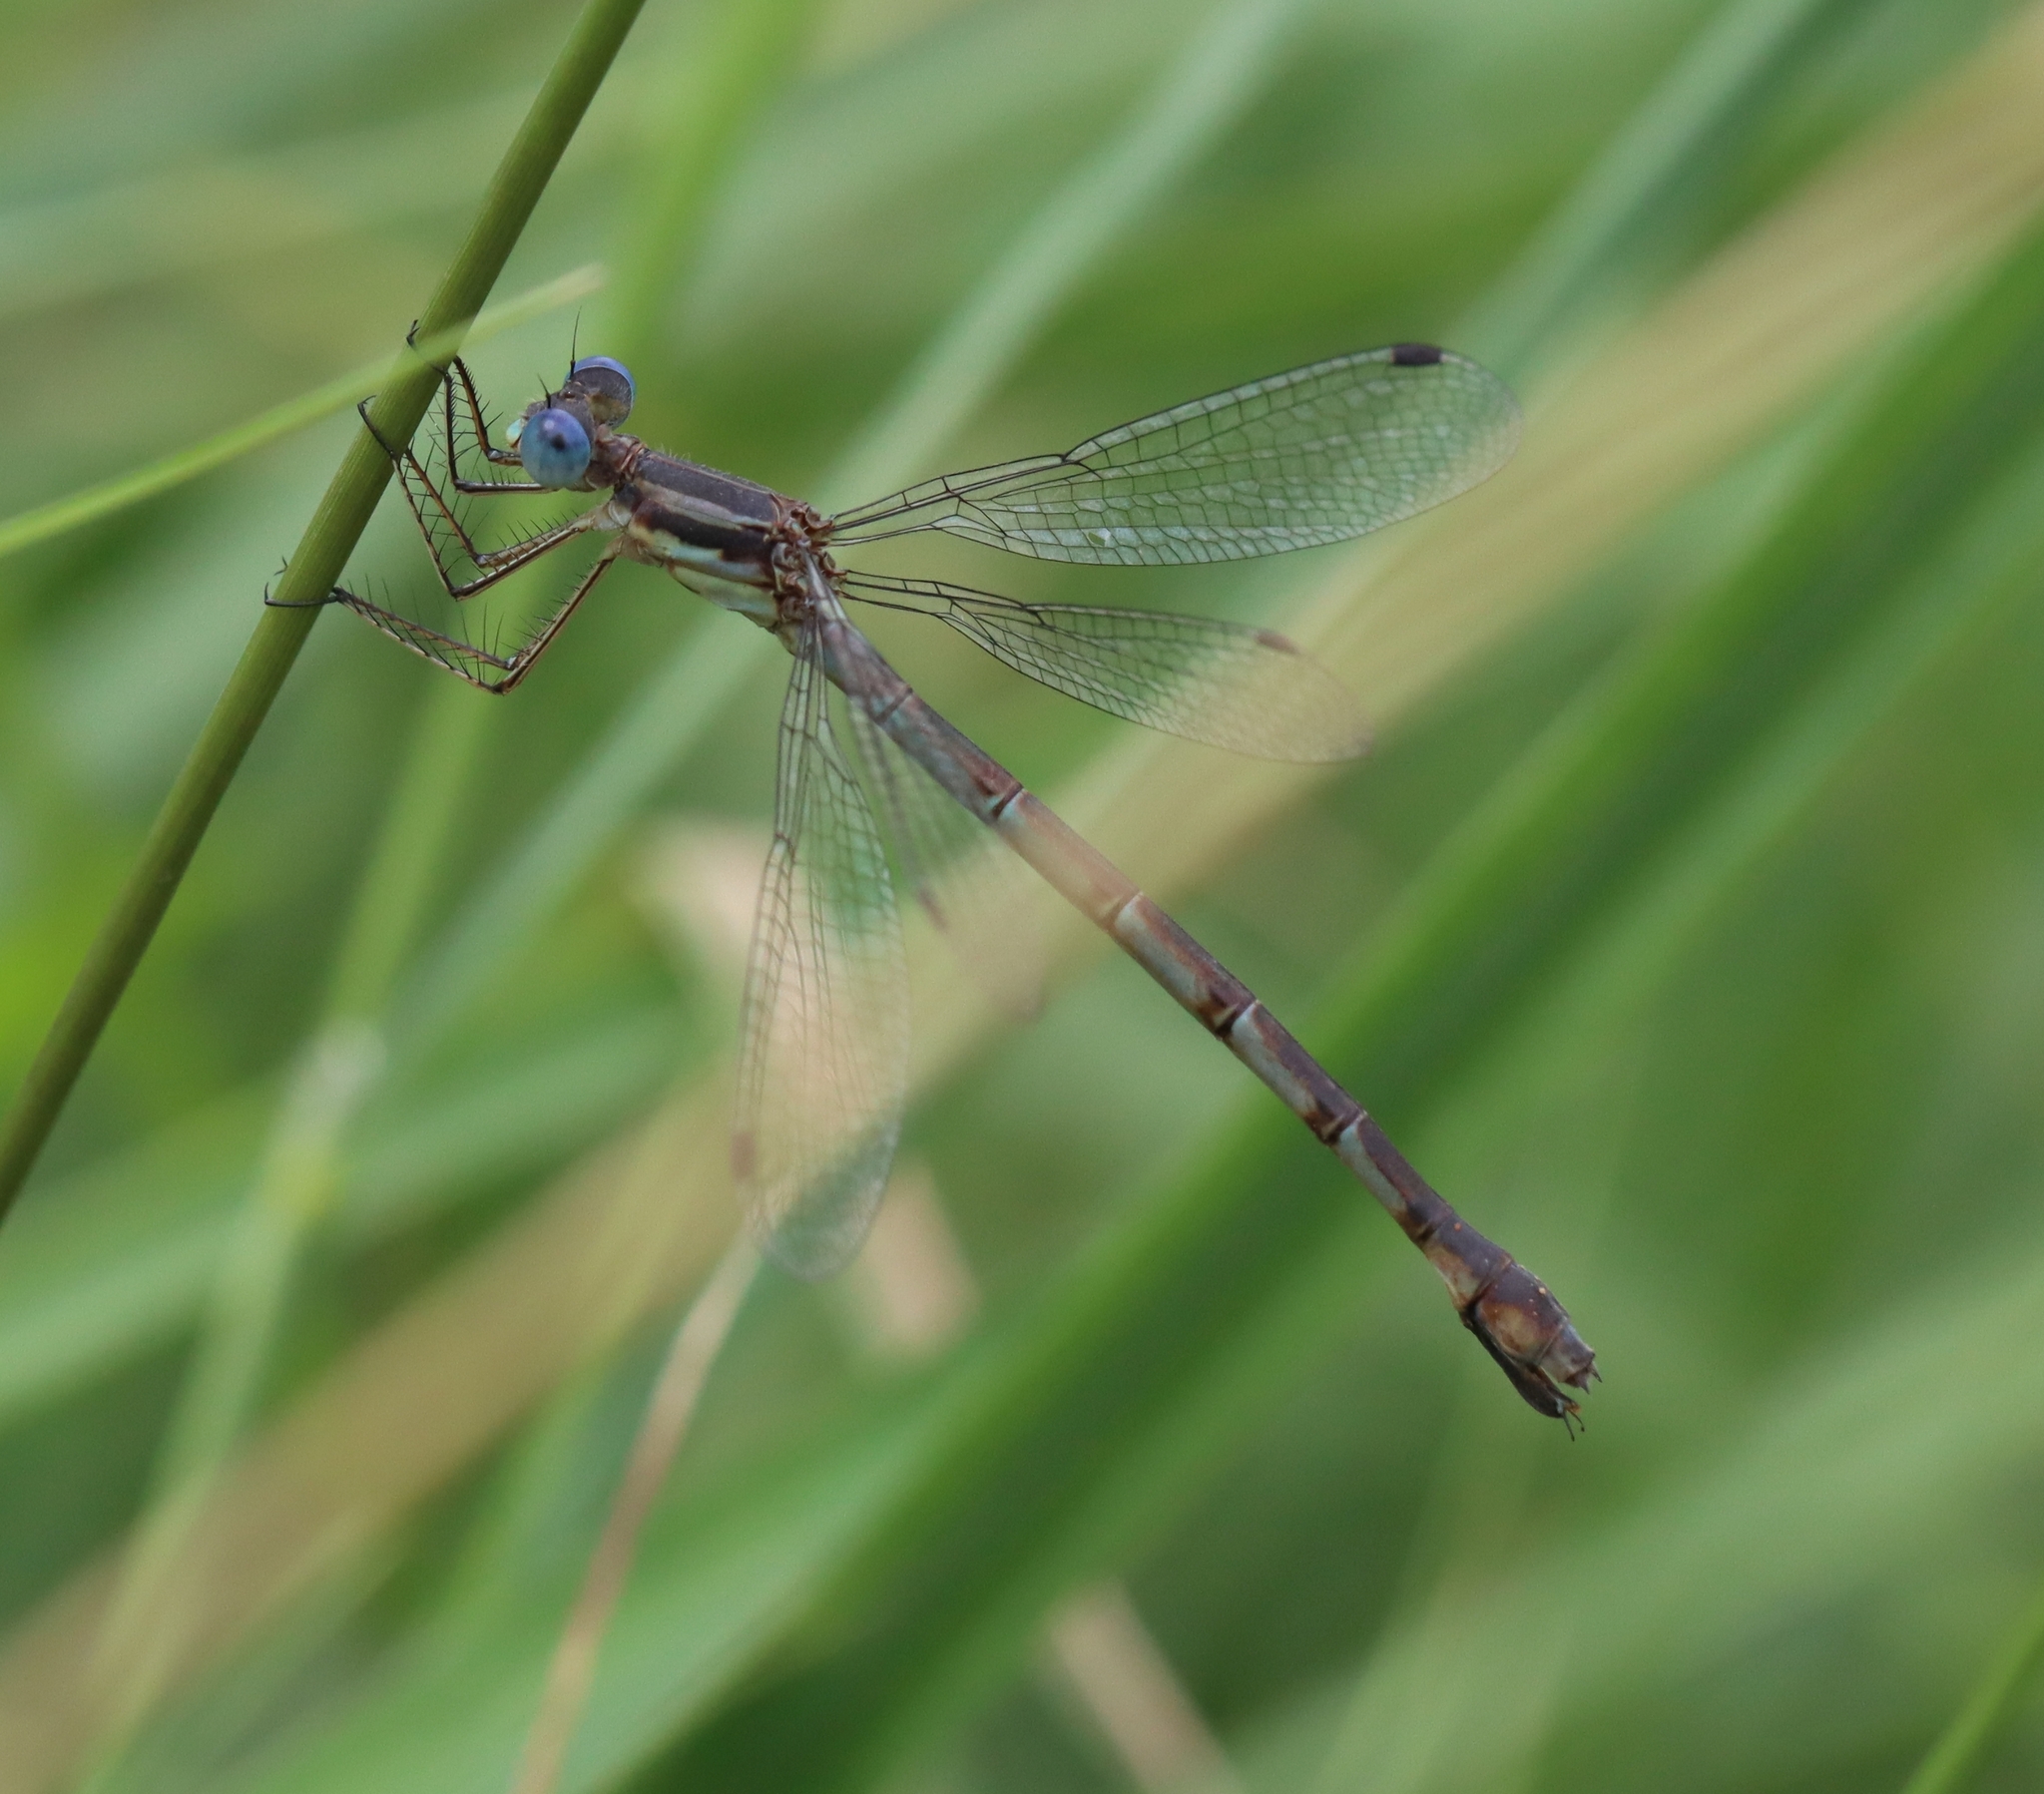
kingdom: Animalia
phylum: Arthropoda
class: Insecta
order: Odonata
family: Lestidae
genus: Lestes
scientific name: Lestes forcipatus
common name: Sweetflag spreadwing
